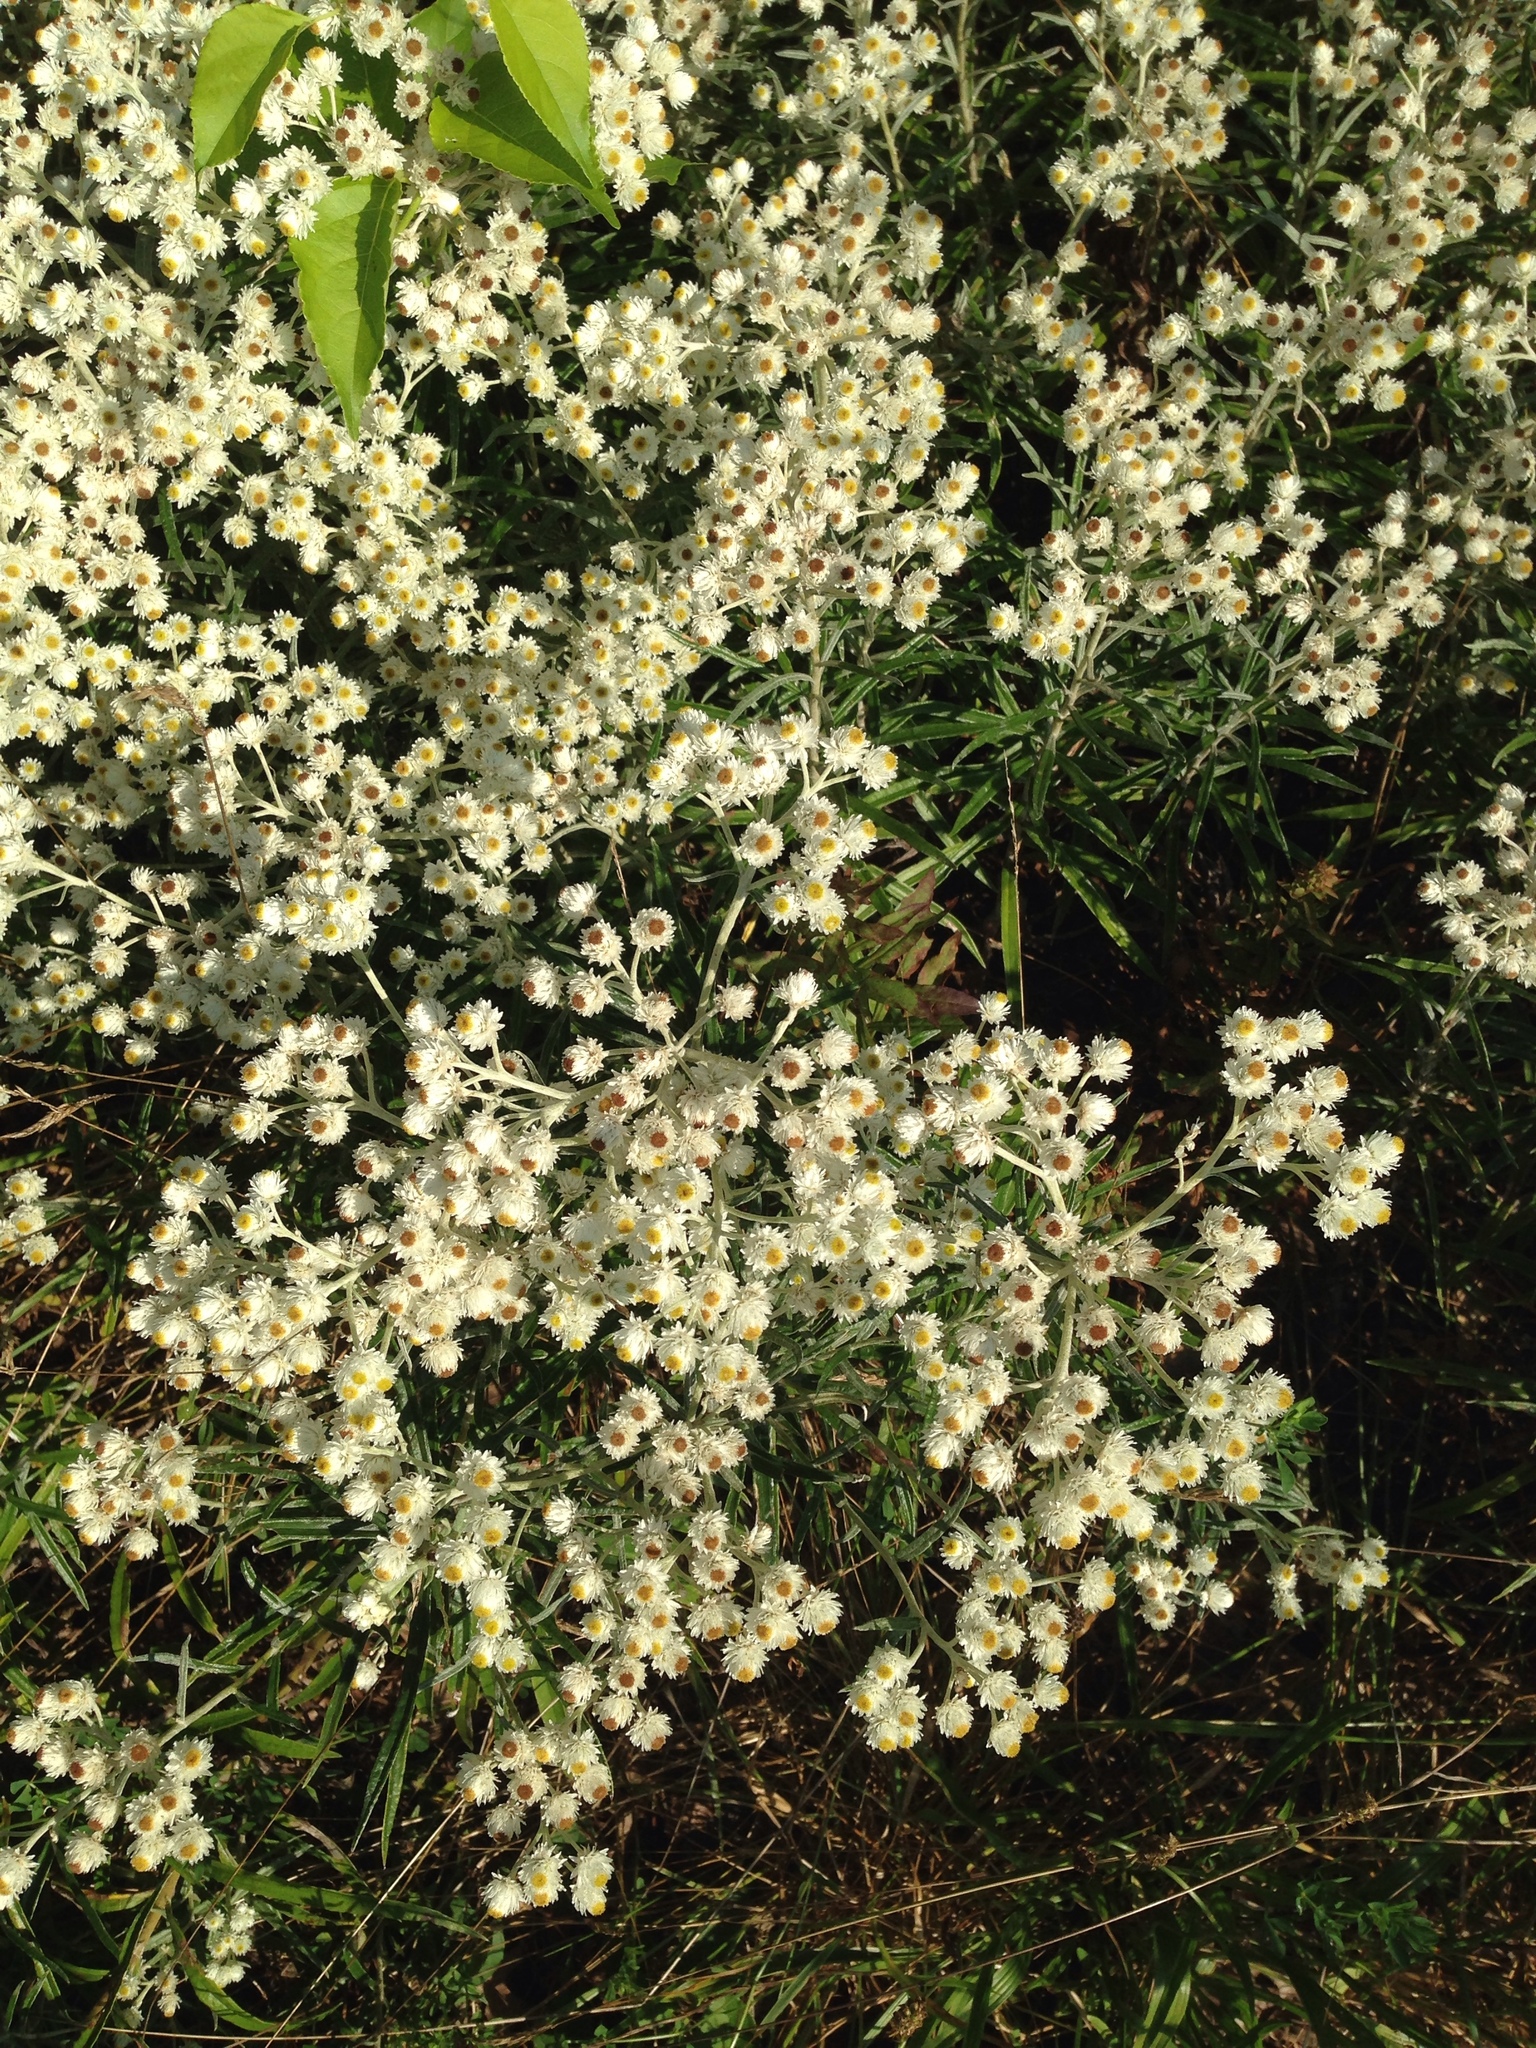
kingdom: Plantae
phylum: Tracheophyta
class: Magnoliopsida
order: Asterales
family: Asteraceae
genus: Anaphalis
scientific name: Anaphalis margaritacea
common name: Pearly everlasting
